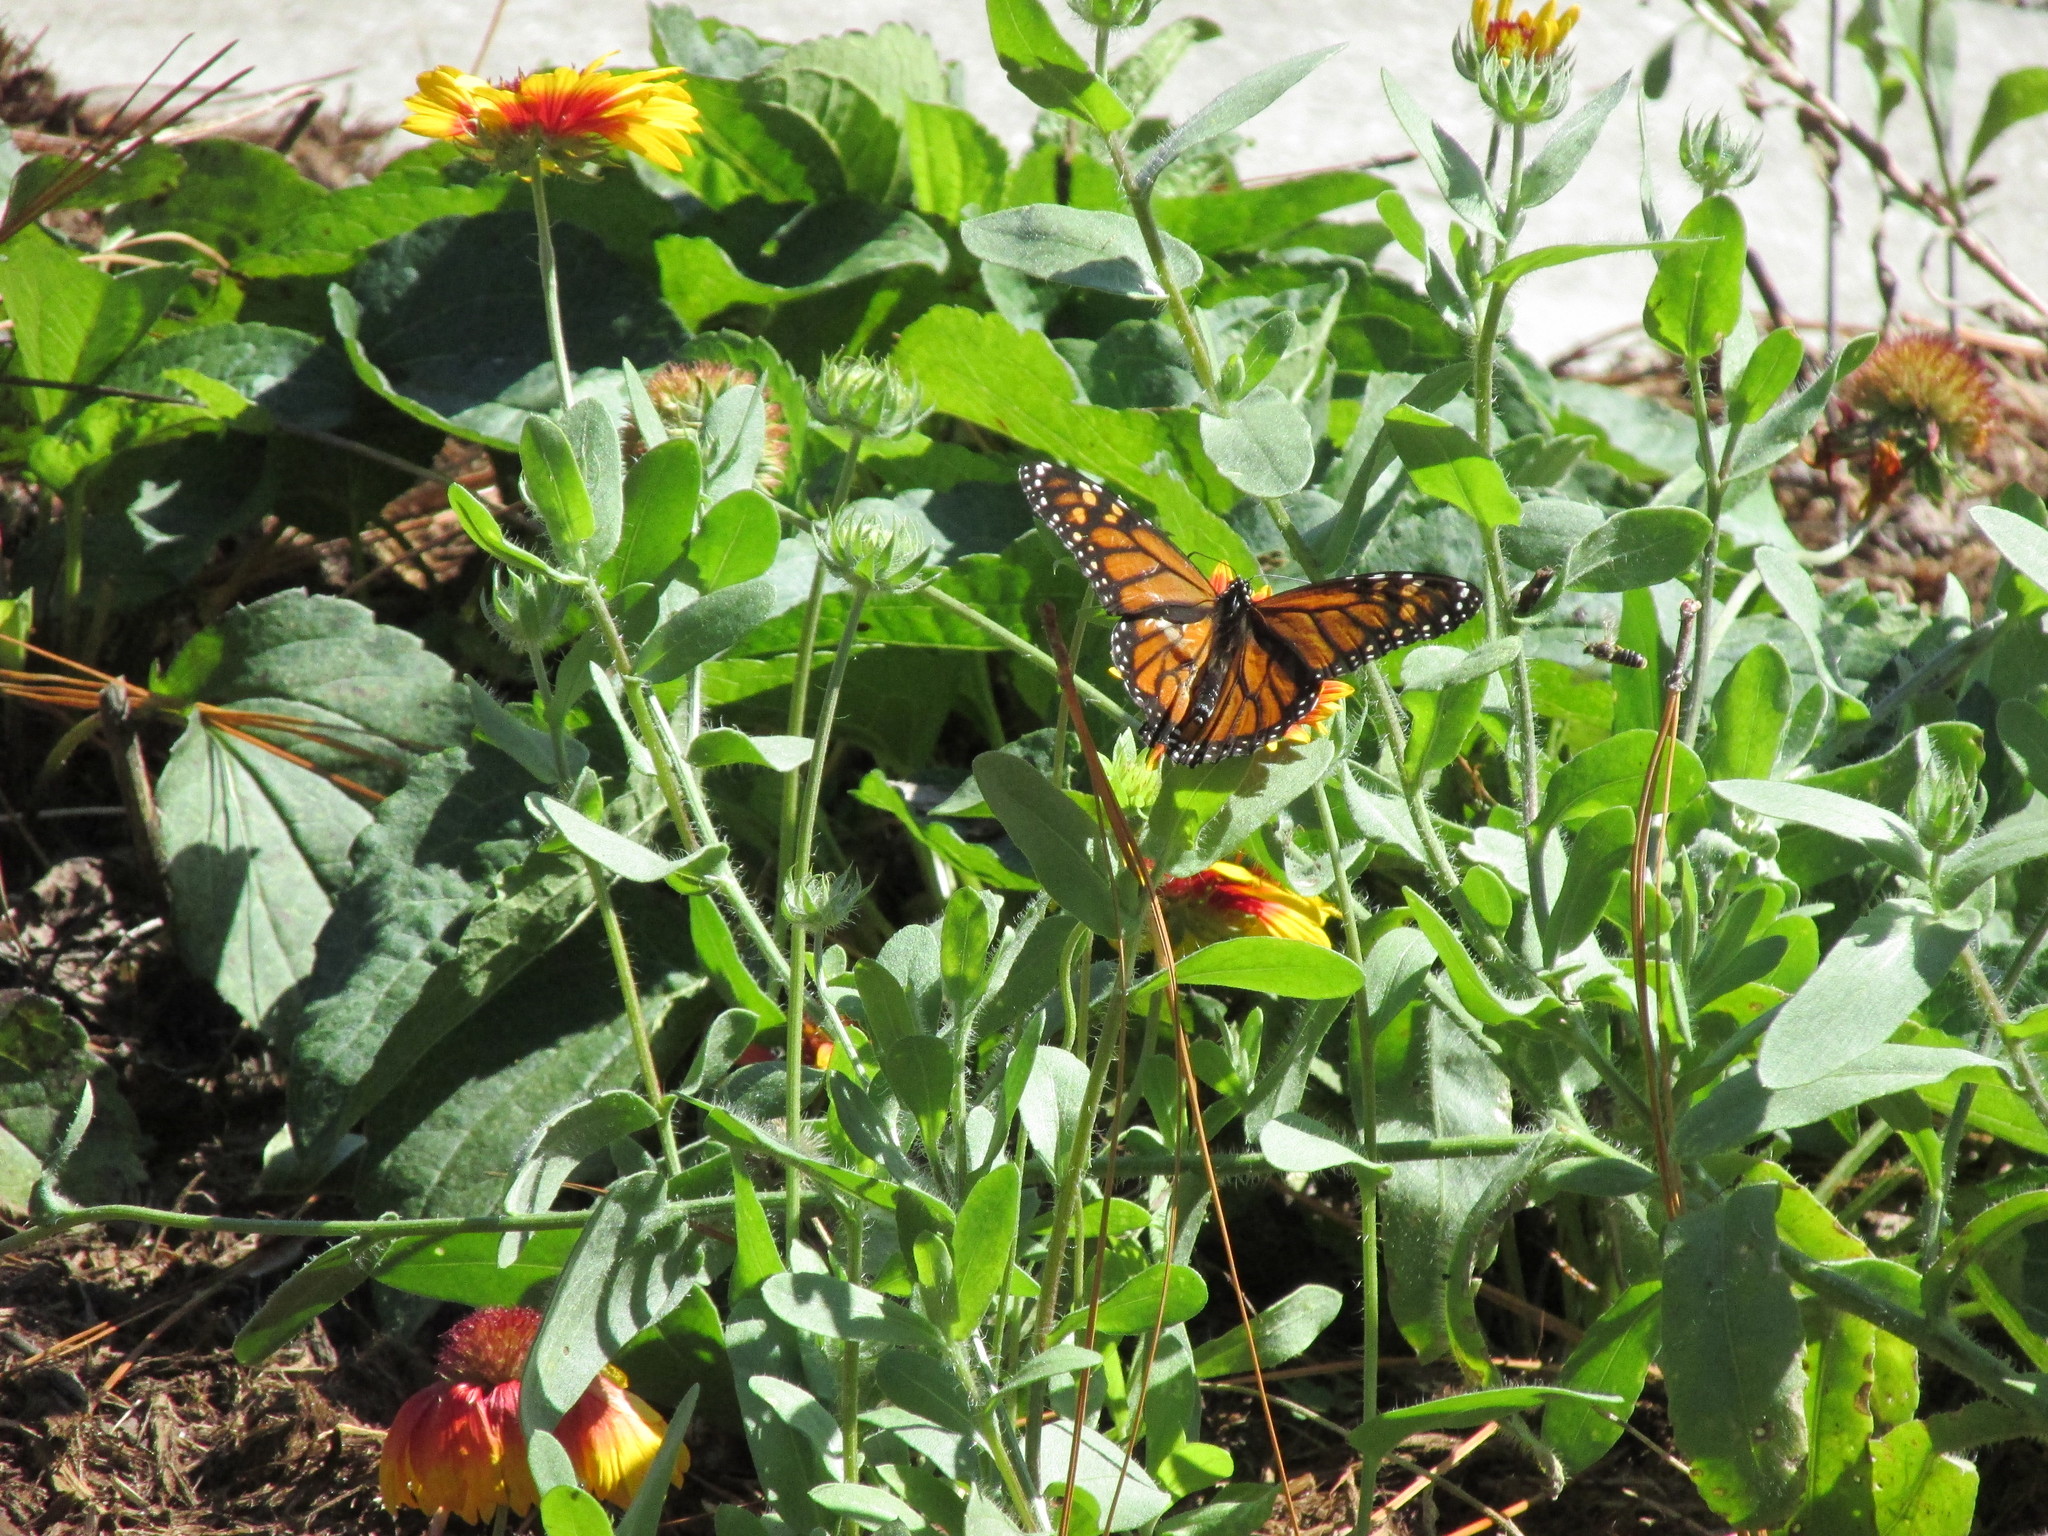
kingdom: Animalia
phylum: Arthropoda
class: Insecta
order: Lepidoptera
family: Nymphalidae
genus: Danaus
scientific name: Danaus plexippus
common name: Monarch
